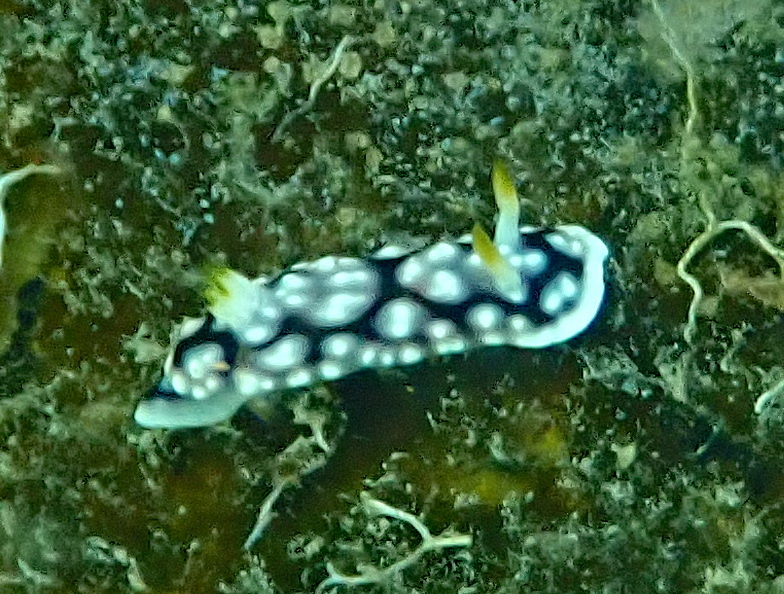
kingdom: Animalia
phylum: Mollusca
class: Gastropoda
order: Nudibranchia
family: Chromodorididae
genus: Goniobranchus
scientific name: Goniobranchus geometricus
